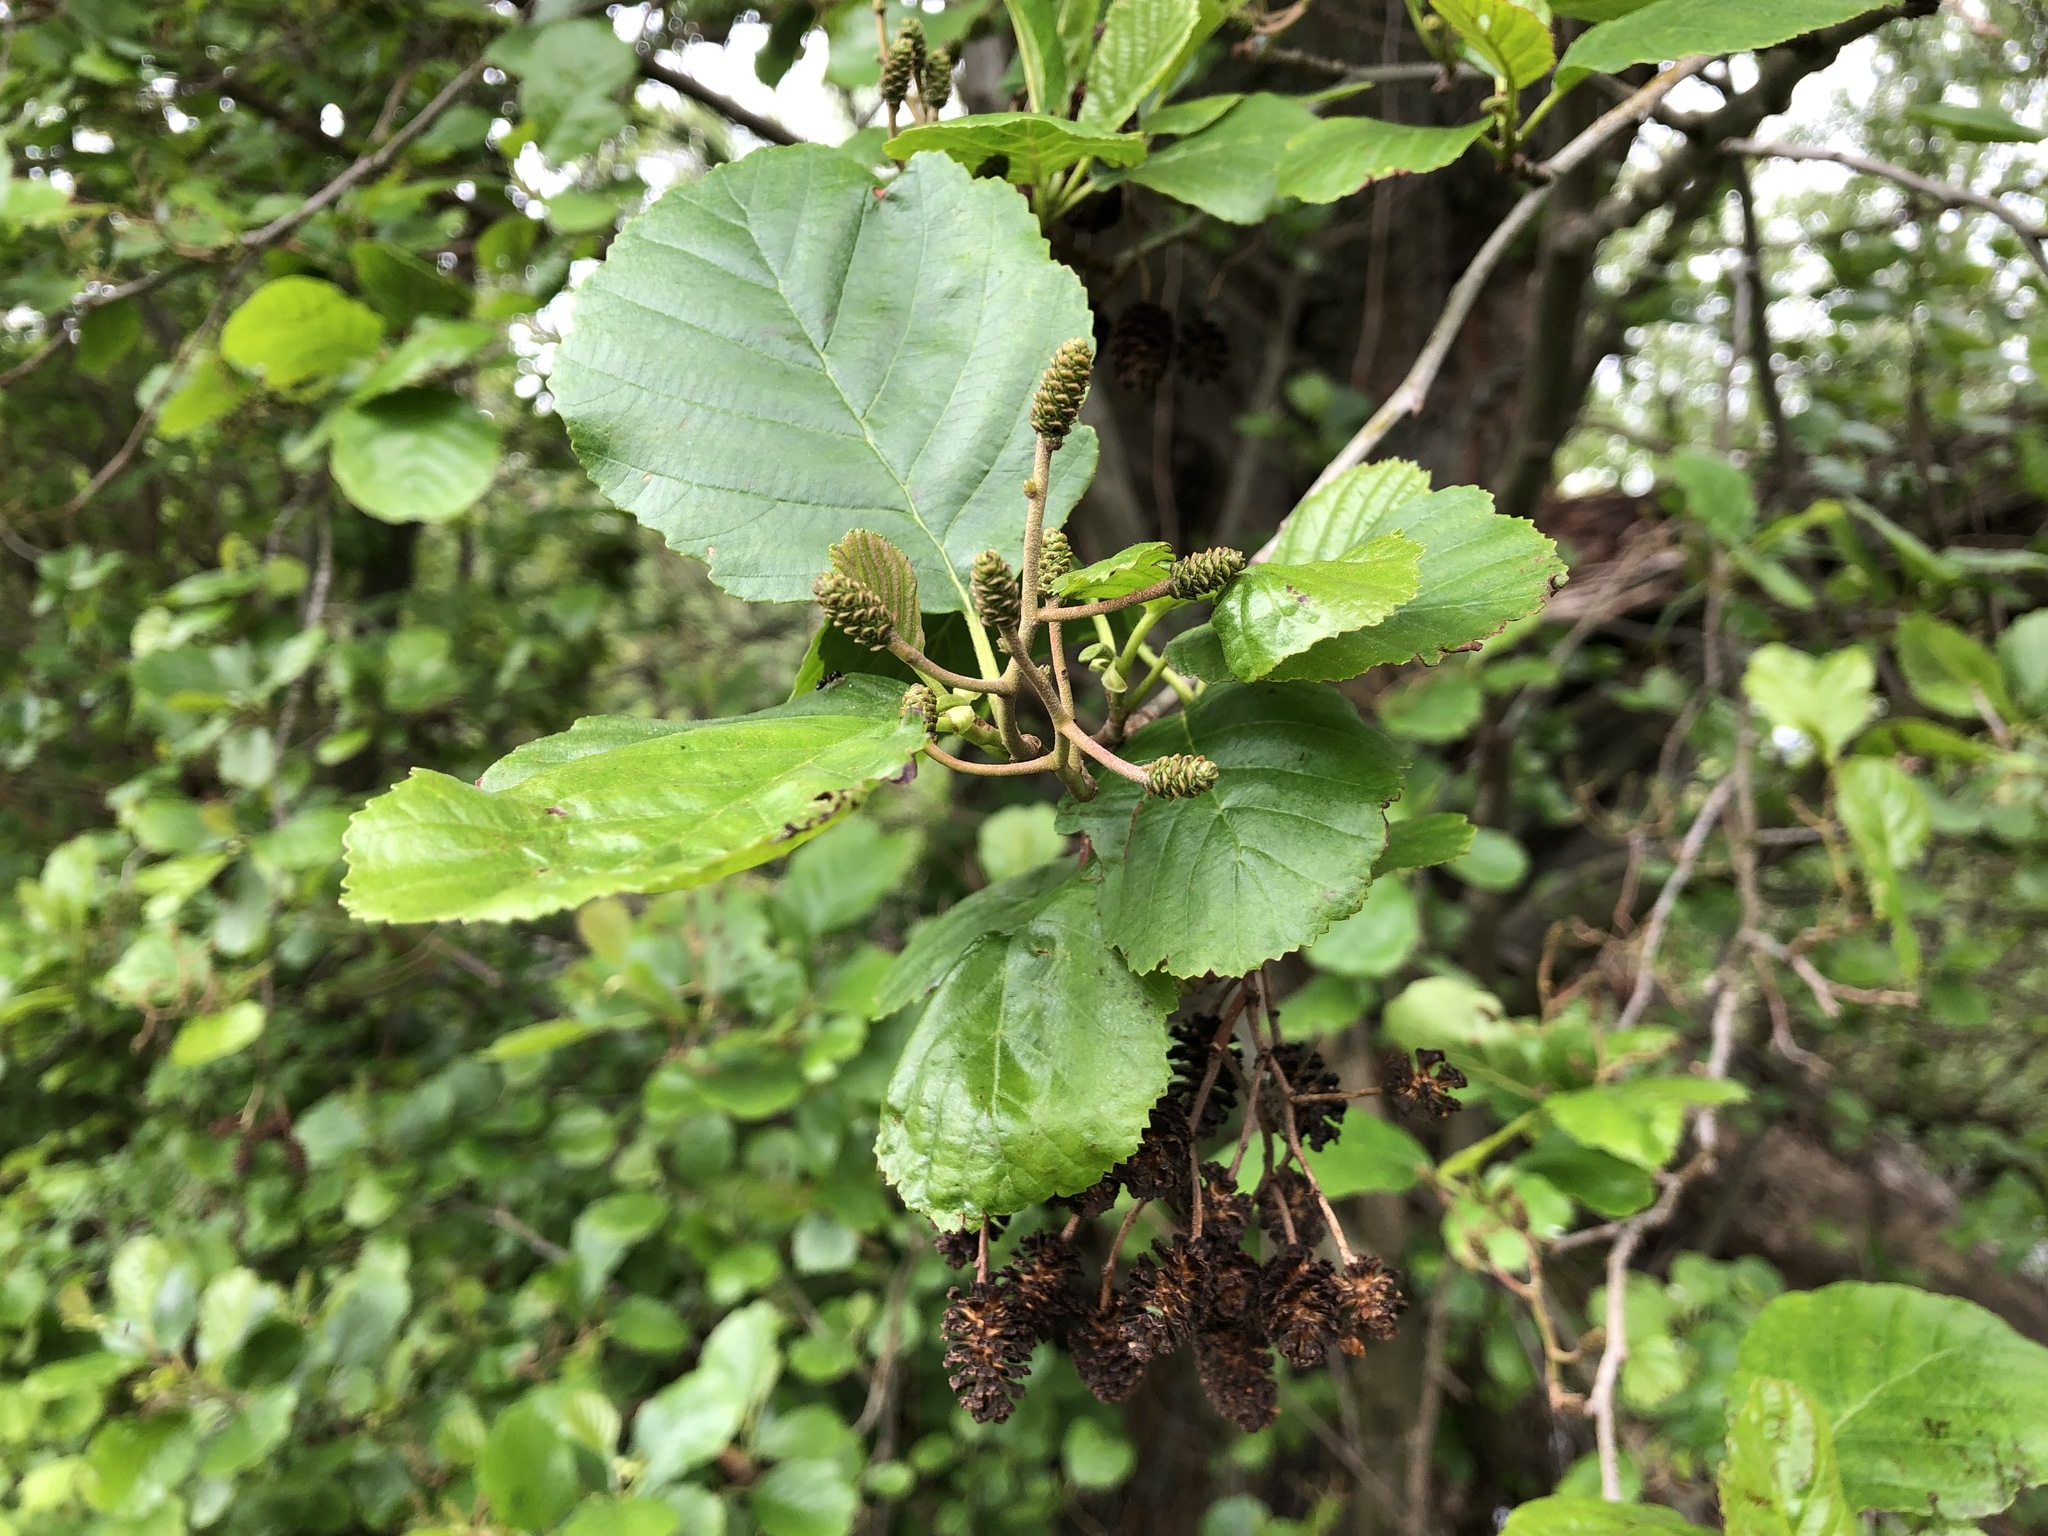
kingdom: Plantae
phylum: Tracheophyta
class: Magnoliopsida
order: Fagales
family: Betulaceae
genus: Alnus
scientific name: Alnus glutinosa
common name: Black alder
